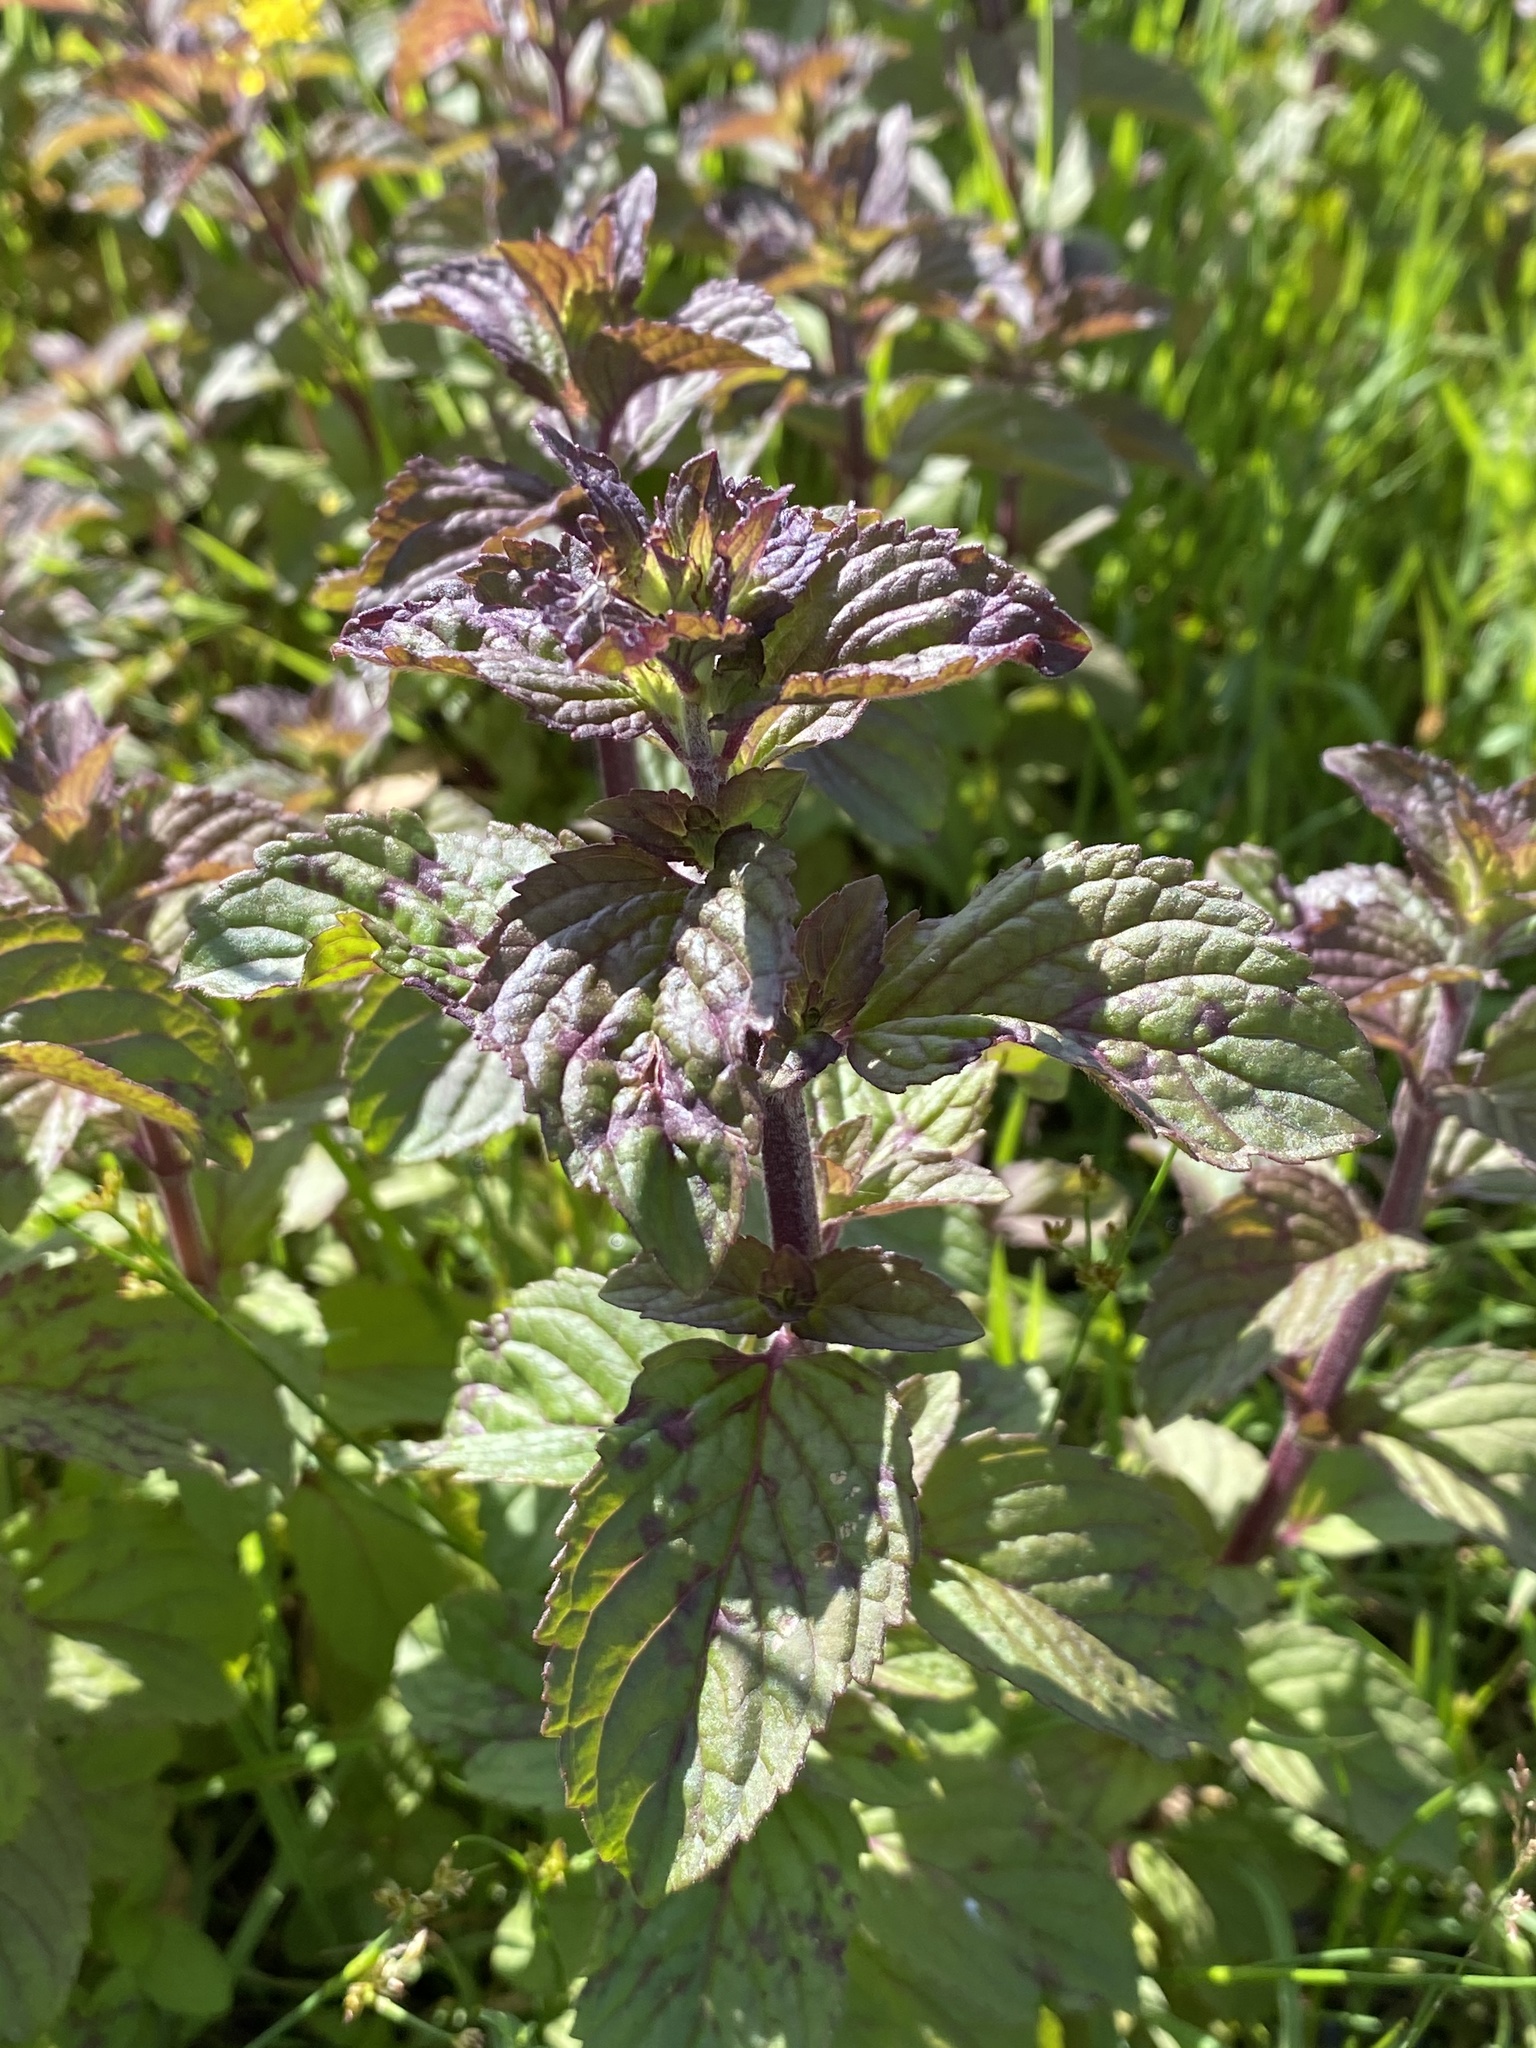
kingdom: Plantae
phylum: Tracheophyta
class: Magnoliopsida
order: Myrtales
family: Lythraceae
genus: Lythrum
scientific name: Lythrum salicaria
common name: Purple loosestrife
